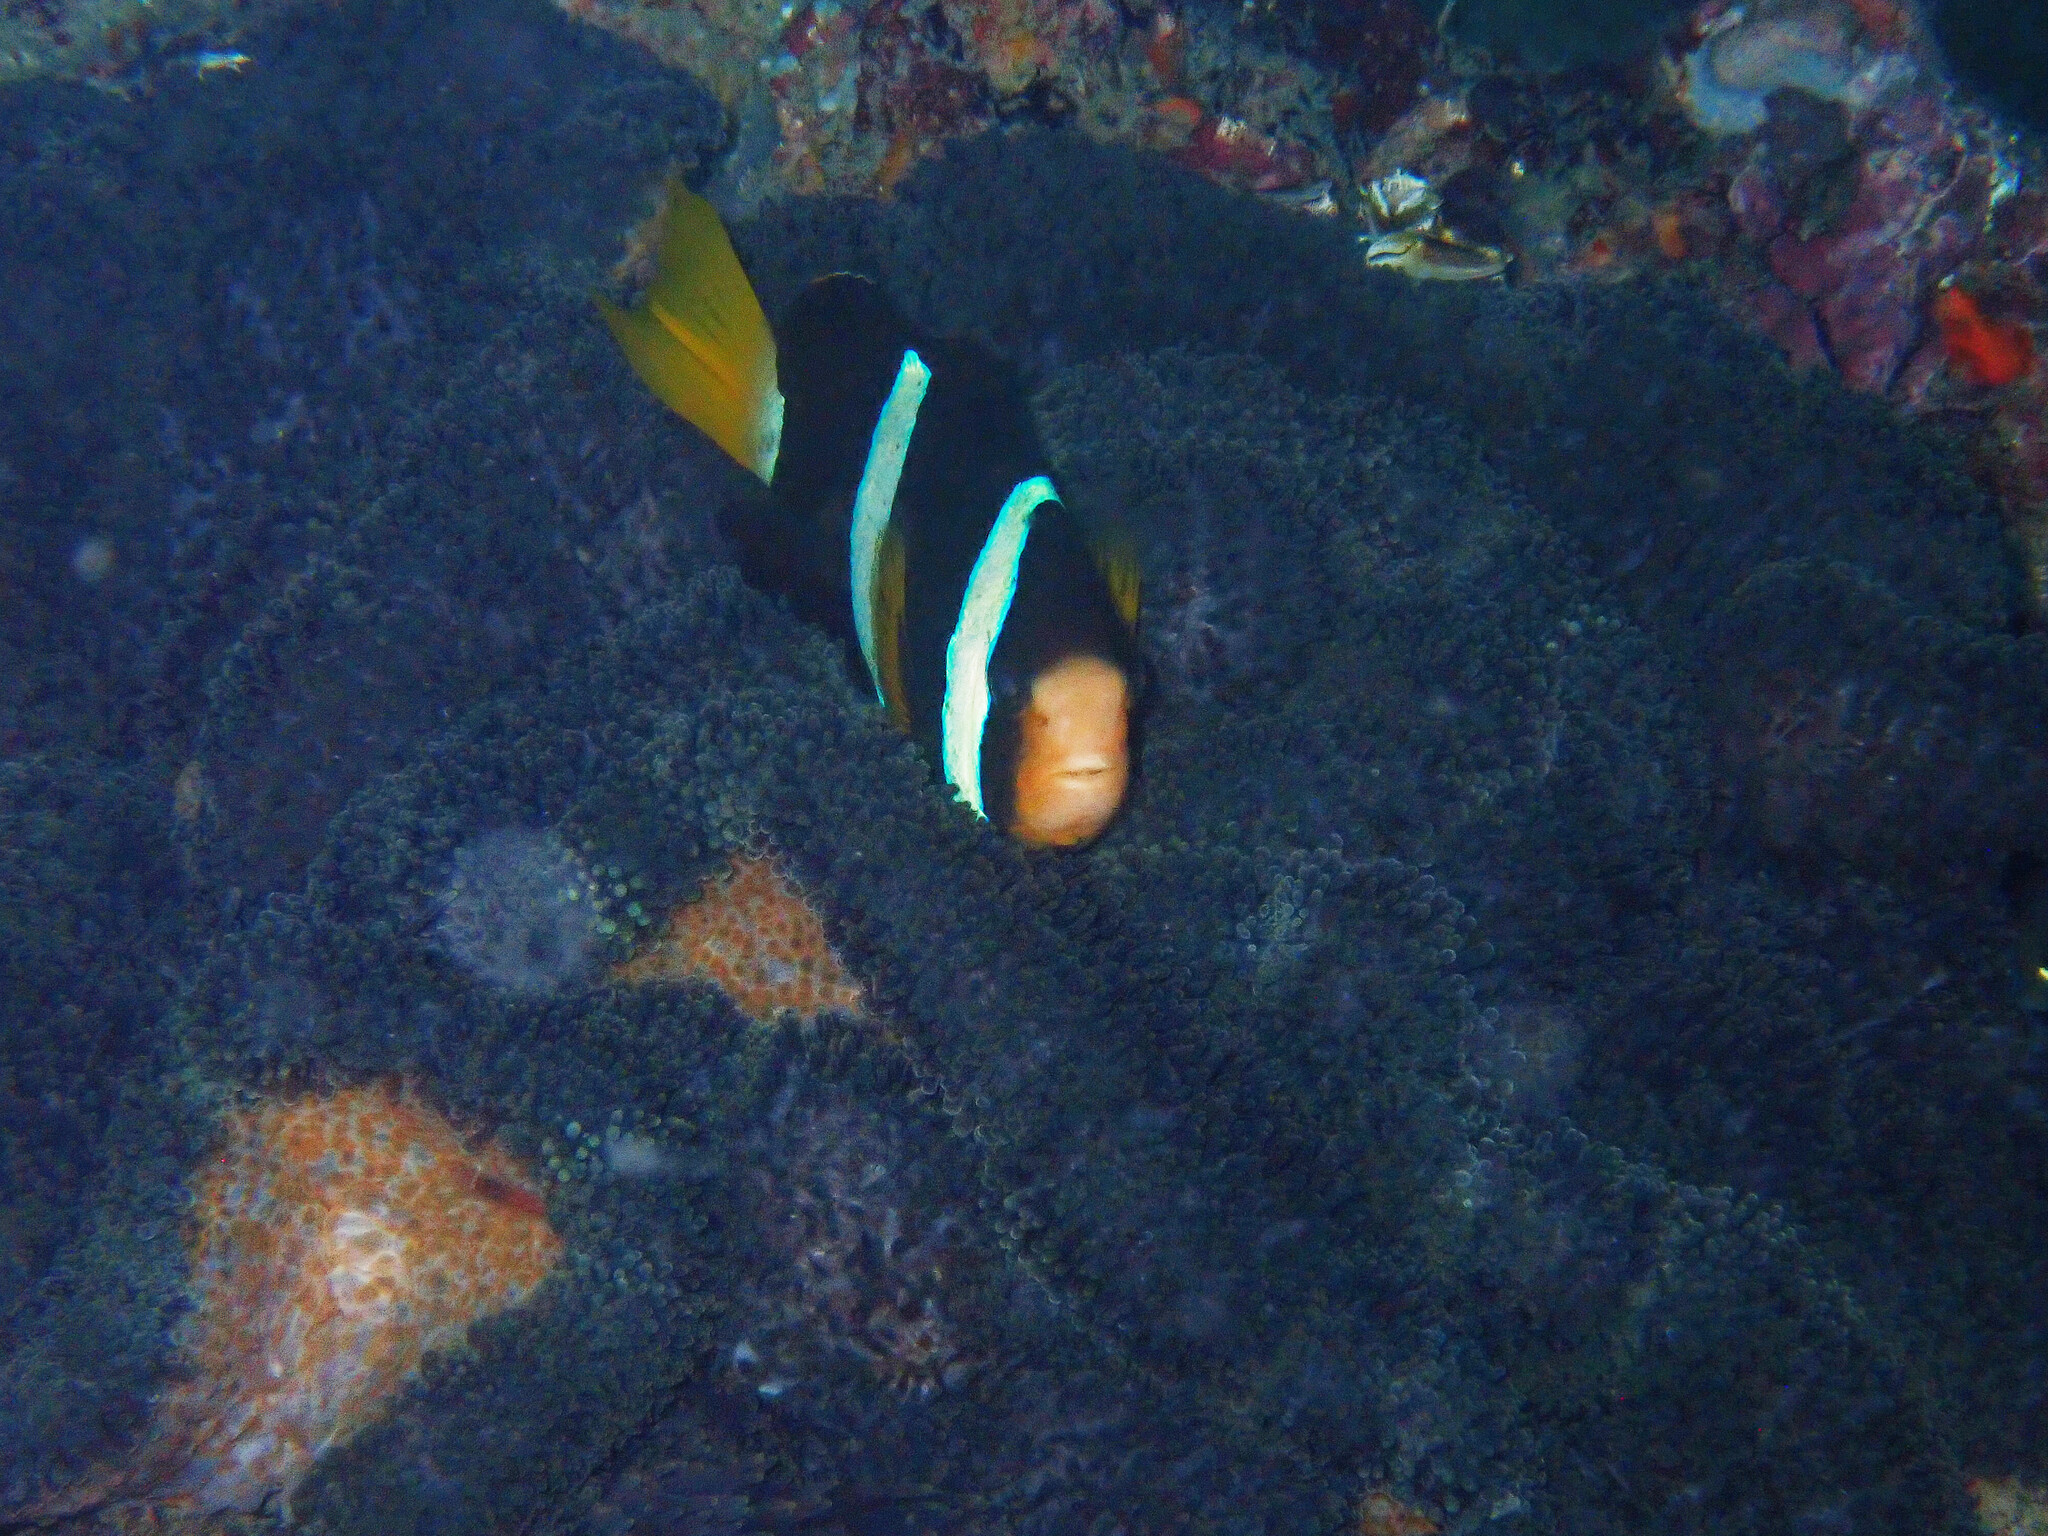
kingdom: Animalia
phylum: Chordata
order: Perciformes
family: Pomacentridae
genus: Amphiprion
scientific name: Amphiprion clarkii
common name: Clark's anemonefish
